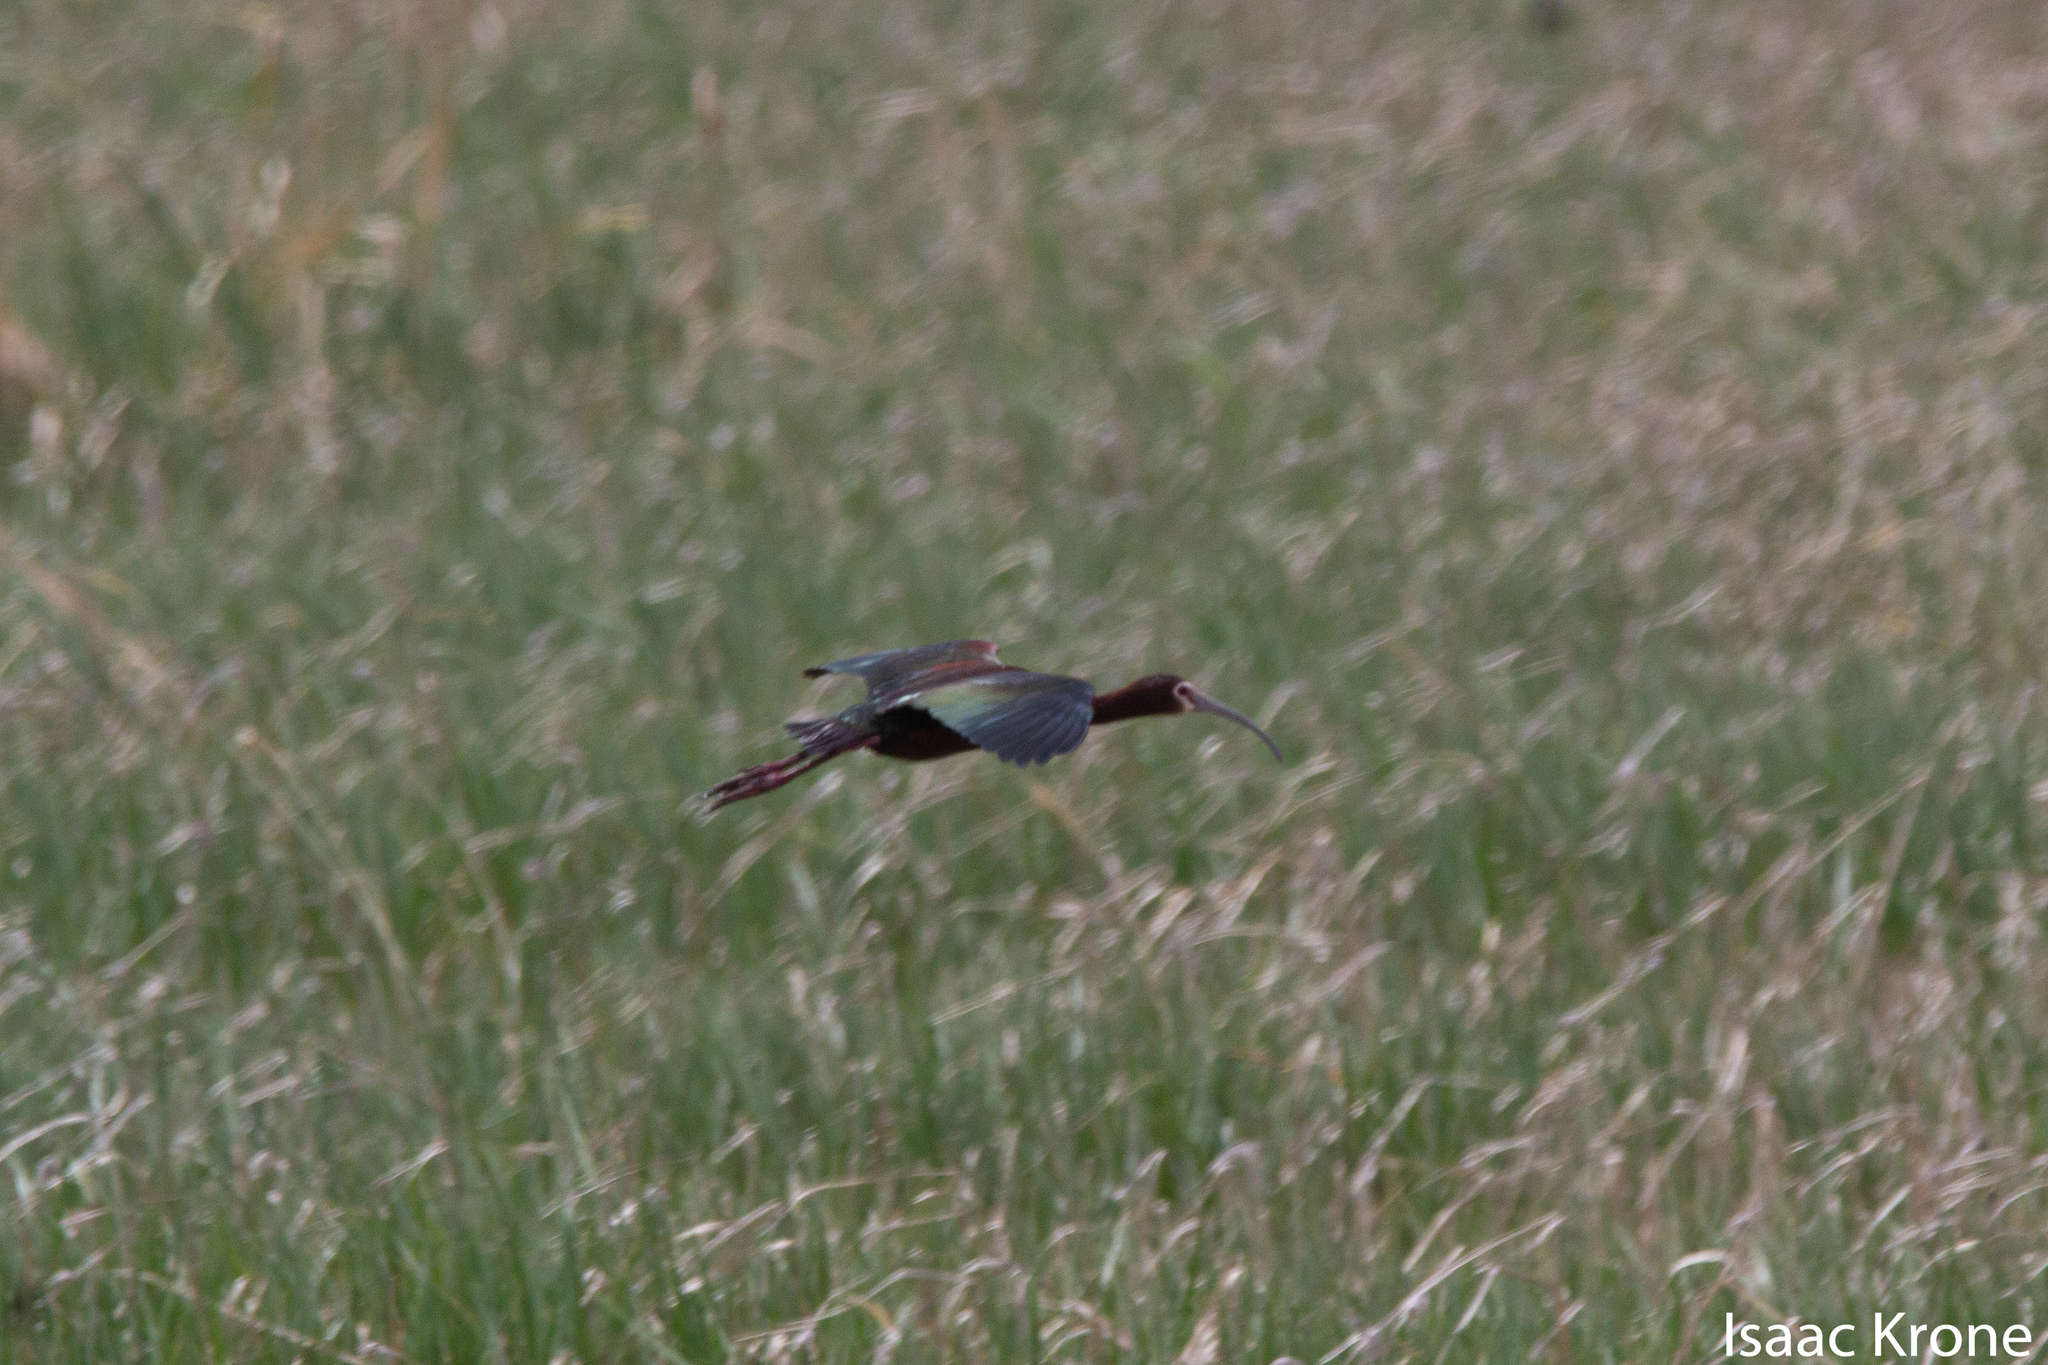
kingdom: Animalia
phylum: Chordata
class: Aves
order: Pelecaniformes
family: Threskiornithidae
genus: Plegadis
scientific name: Plegadis chihi
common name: White-faced ibis
